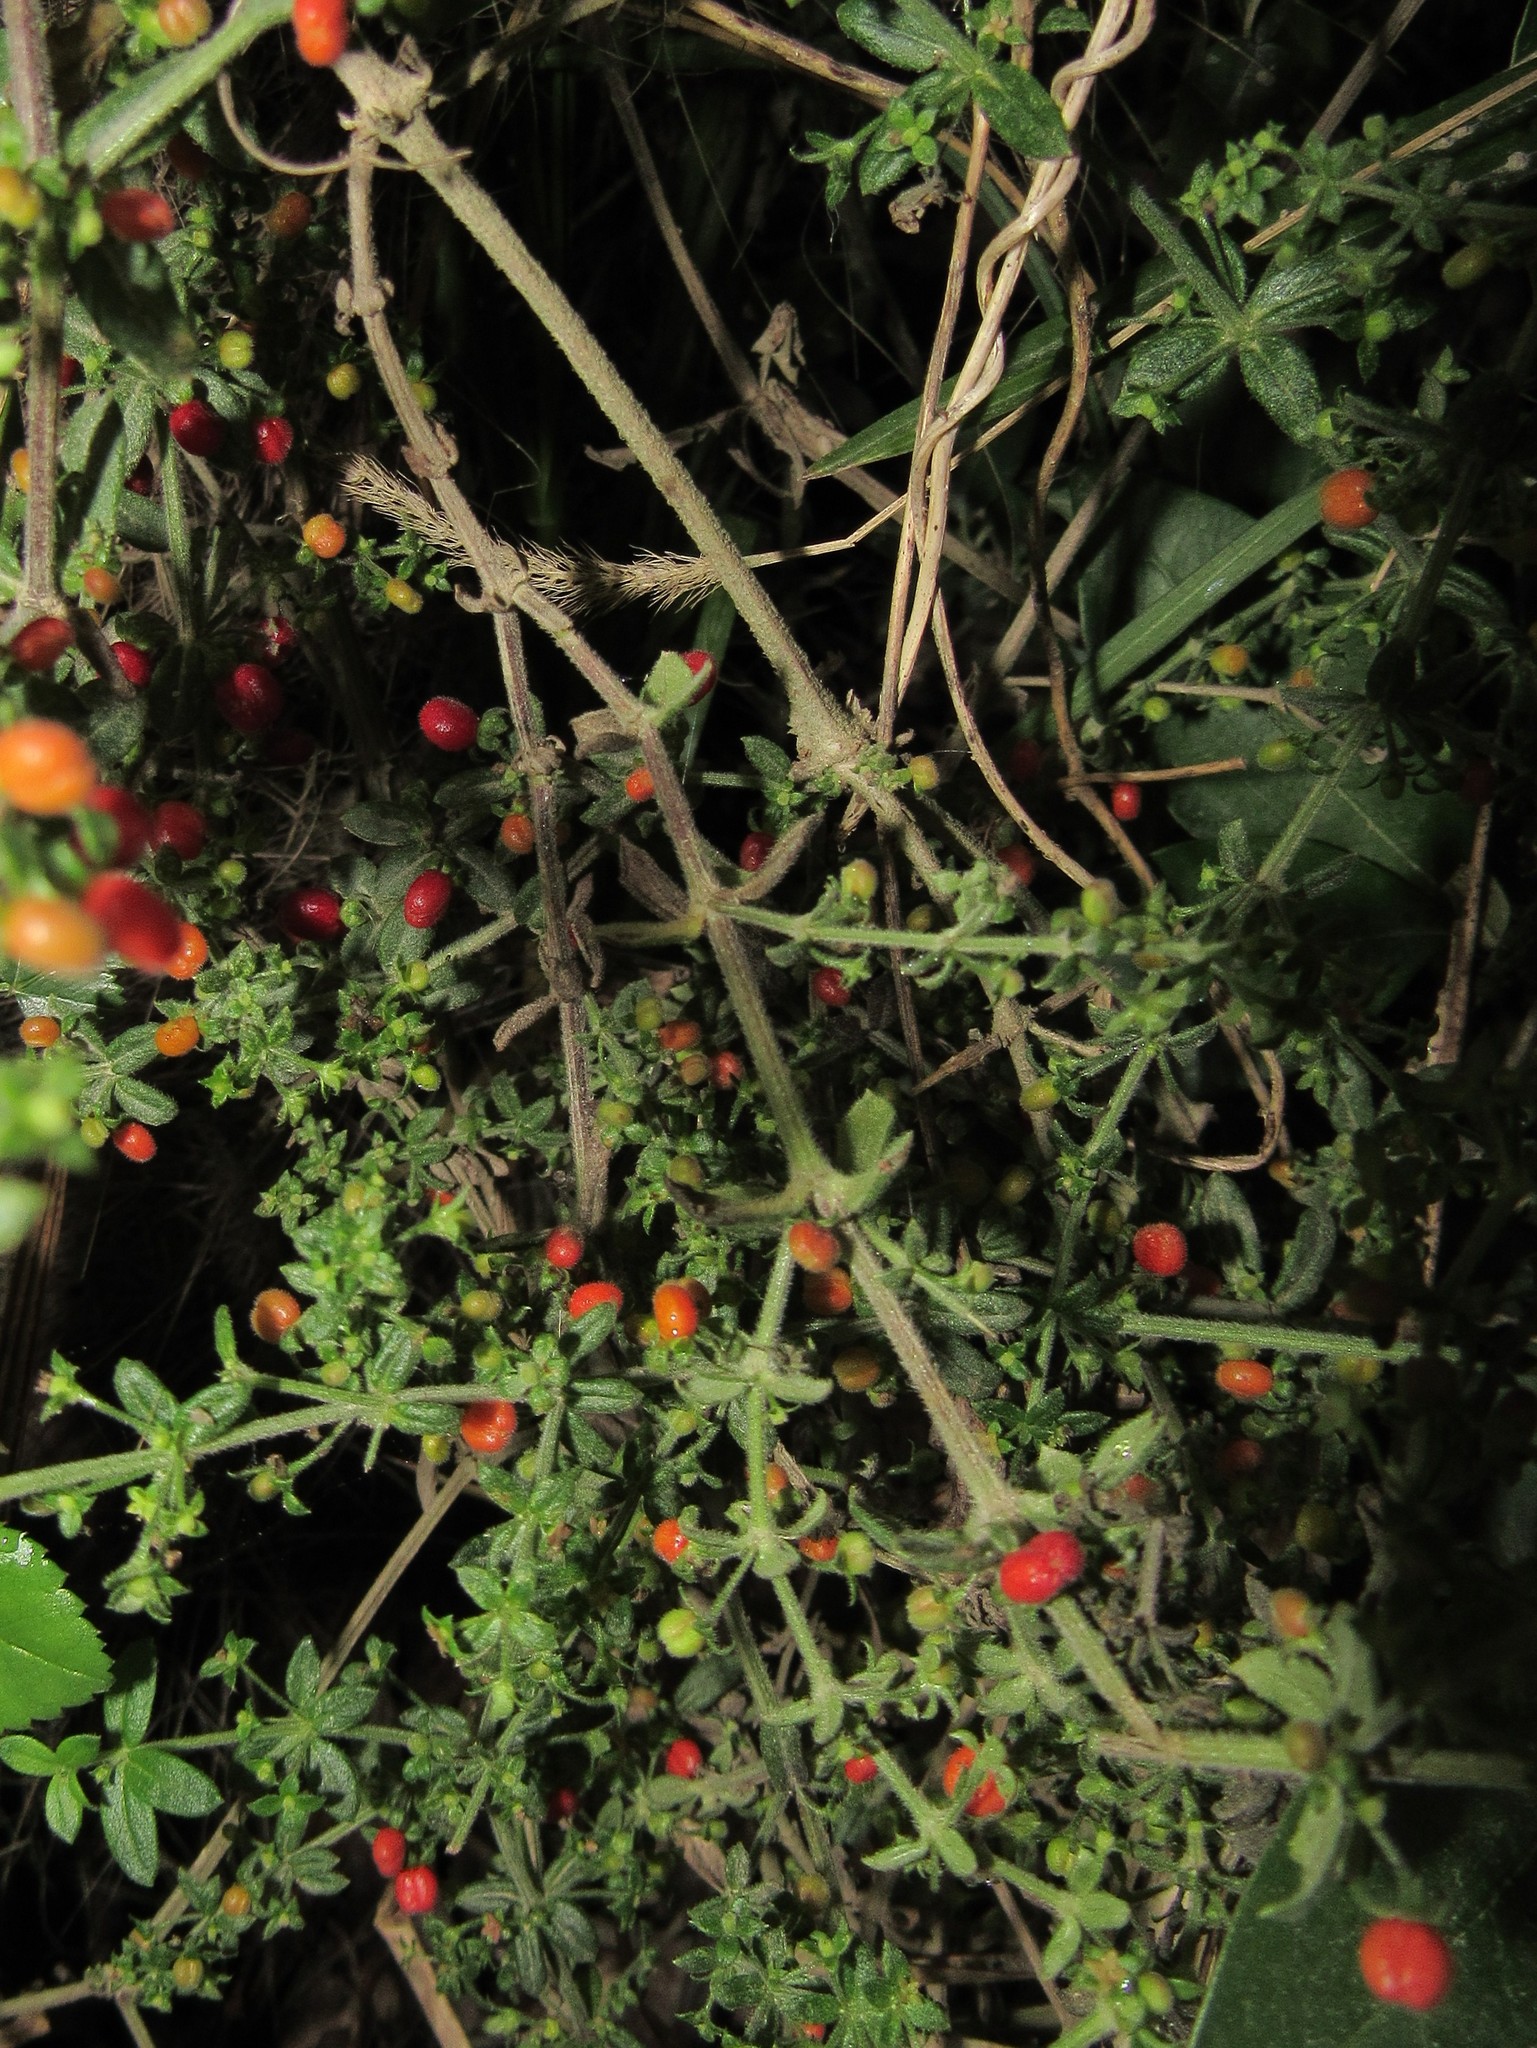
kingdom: Plantae
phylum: Tracheophyta
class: Magnoliopsida
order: Gentianales
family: Rubiaceae
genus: Galium
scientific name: Galium hypocarpium
